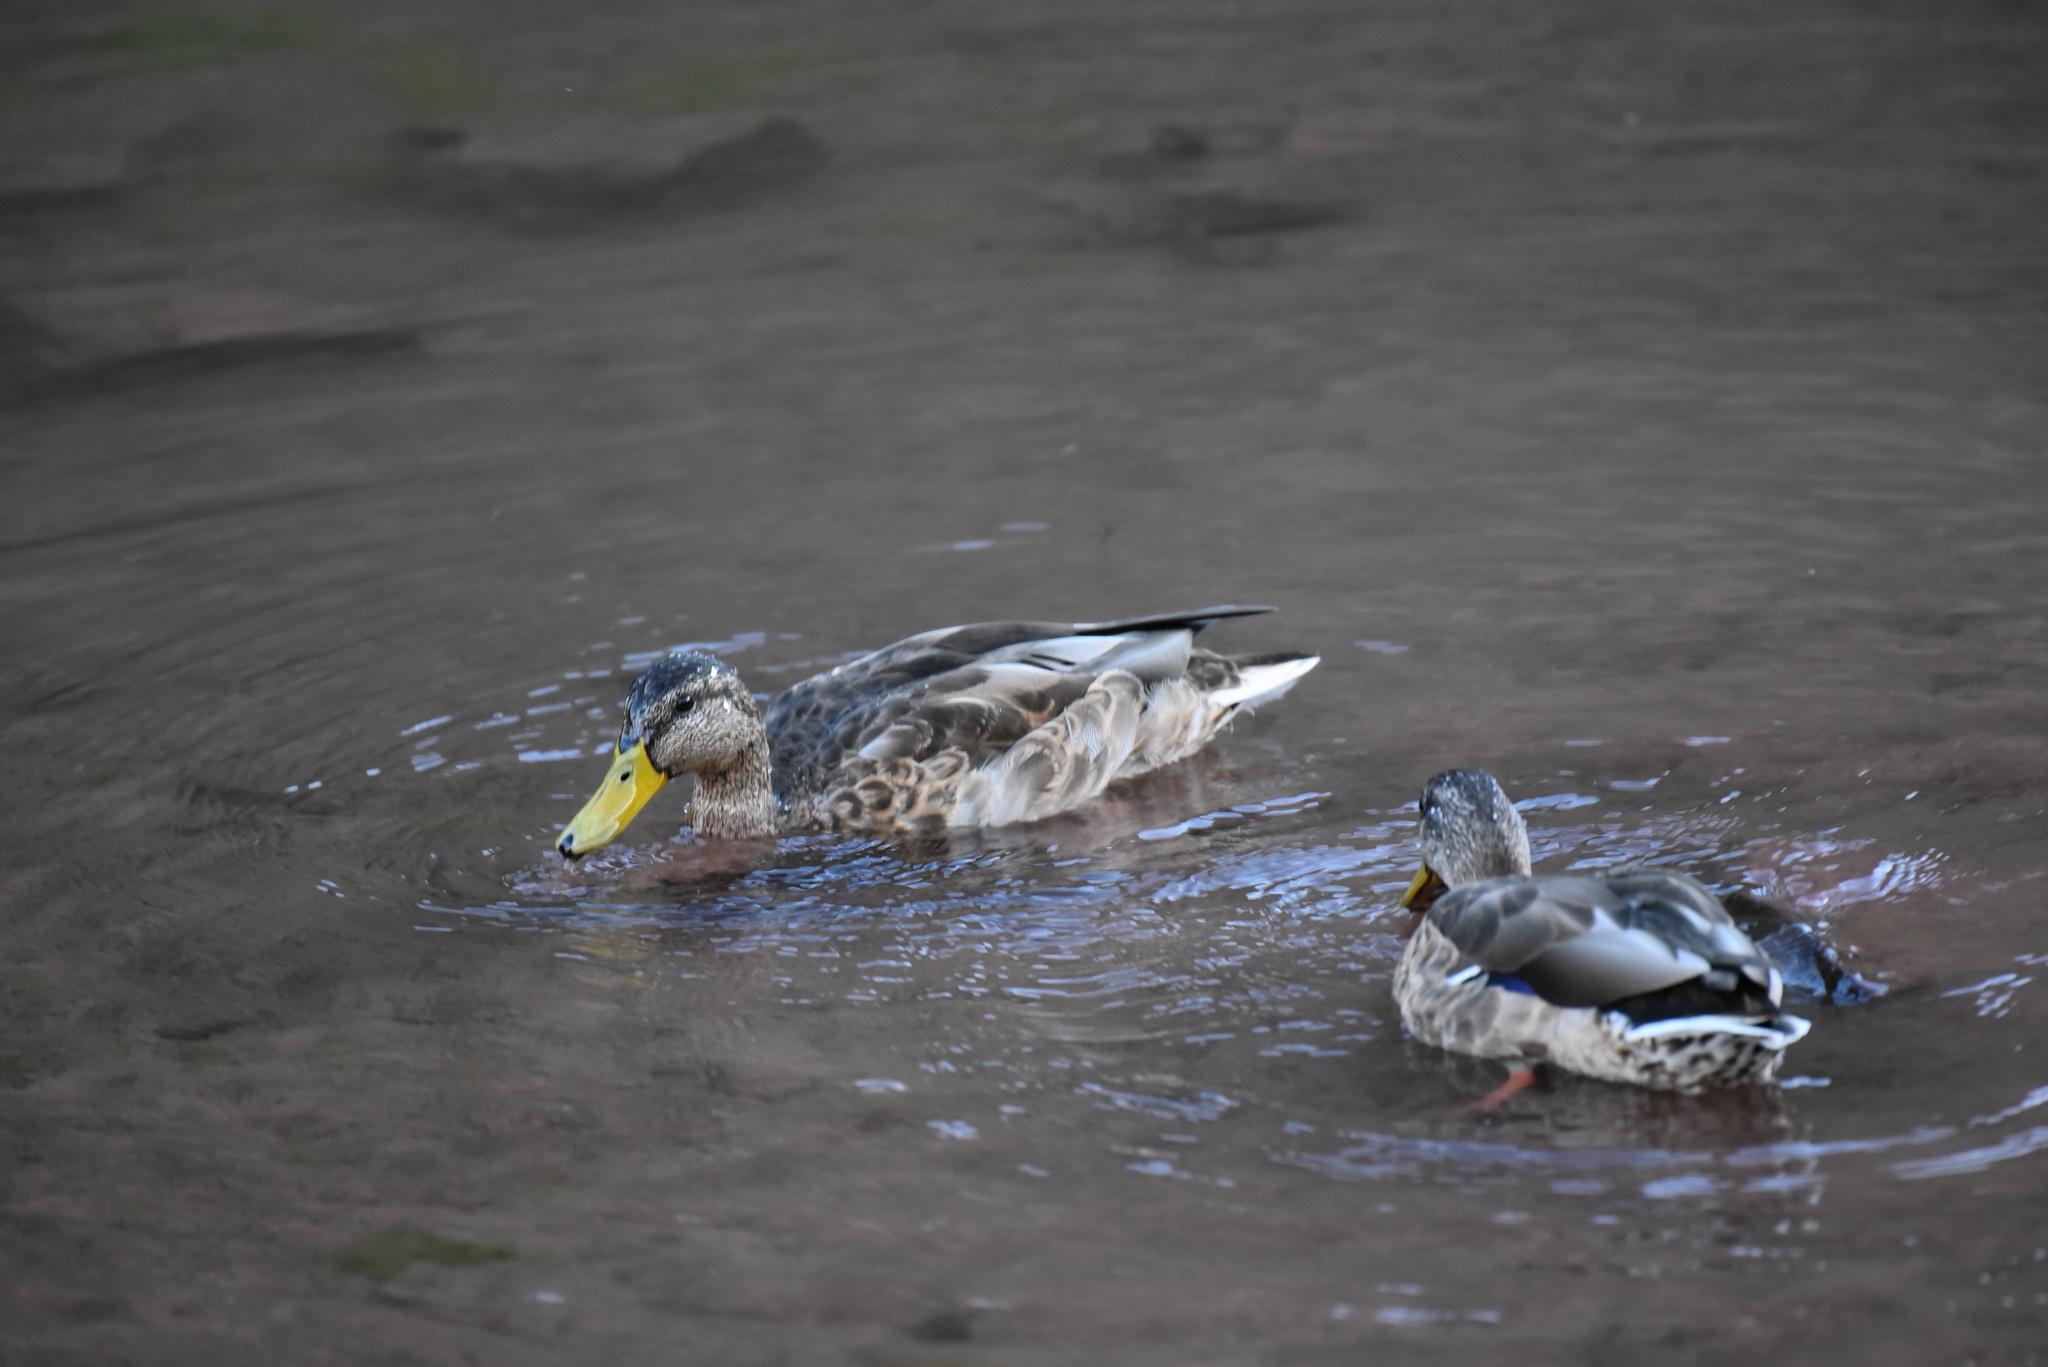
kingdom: Animalia
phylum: Chordata
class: Aves
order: Anseriformes
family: Anatidae
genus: Anas
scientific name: Anas platyrhynchos
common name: Mallard
